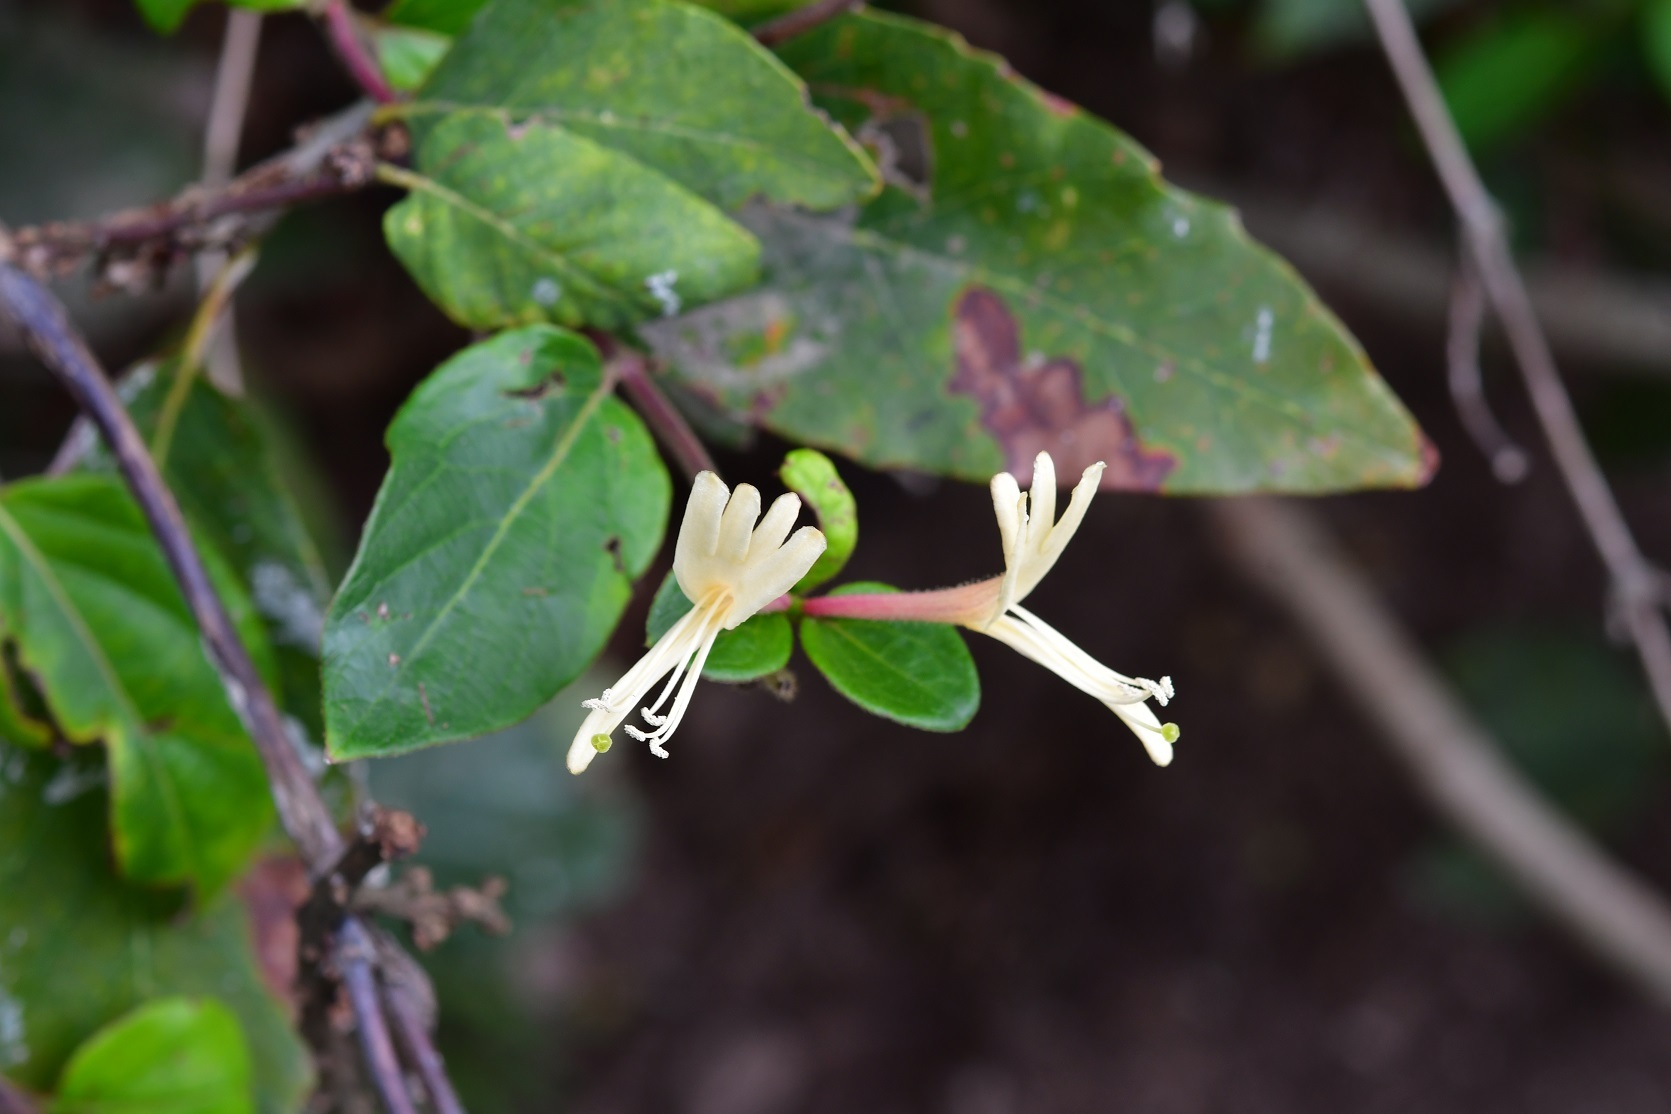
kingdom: Plantae
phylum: Tracheophyta
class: Magnoliopsida
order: Dipsacales
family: Caprifoliaceae
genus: Lonicera
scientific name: Lonicera japonica
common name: Japanese honeysuckle
